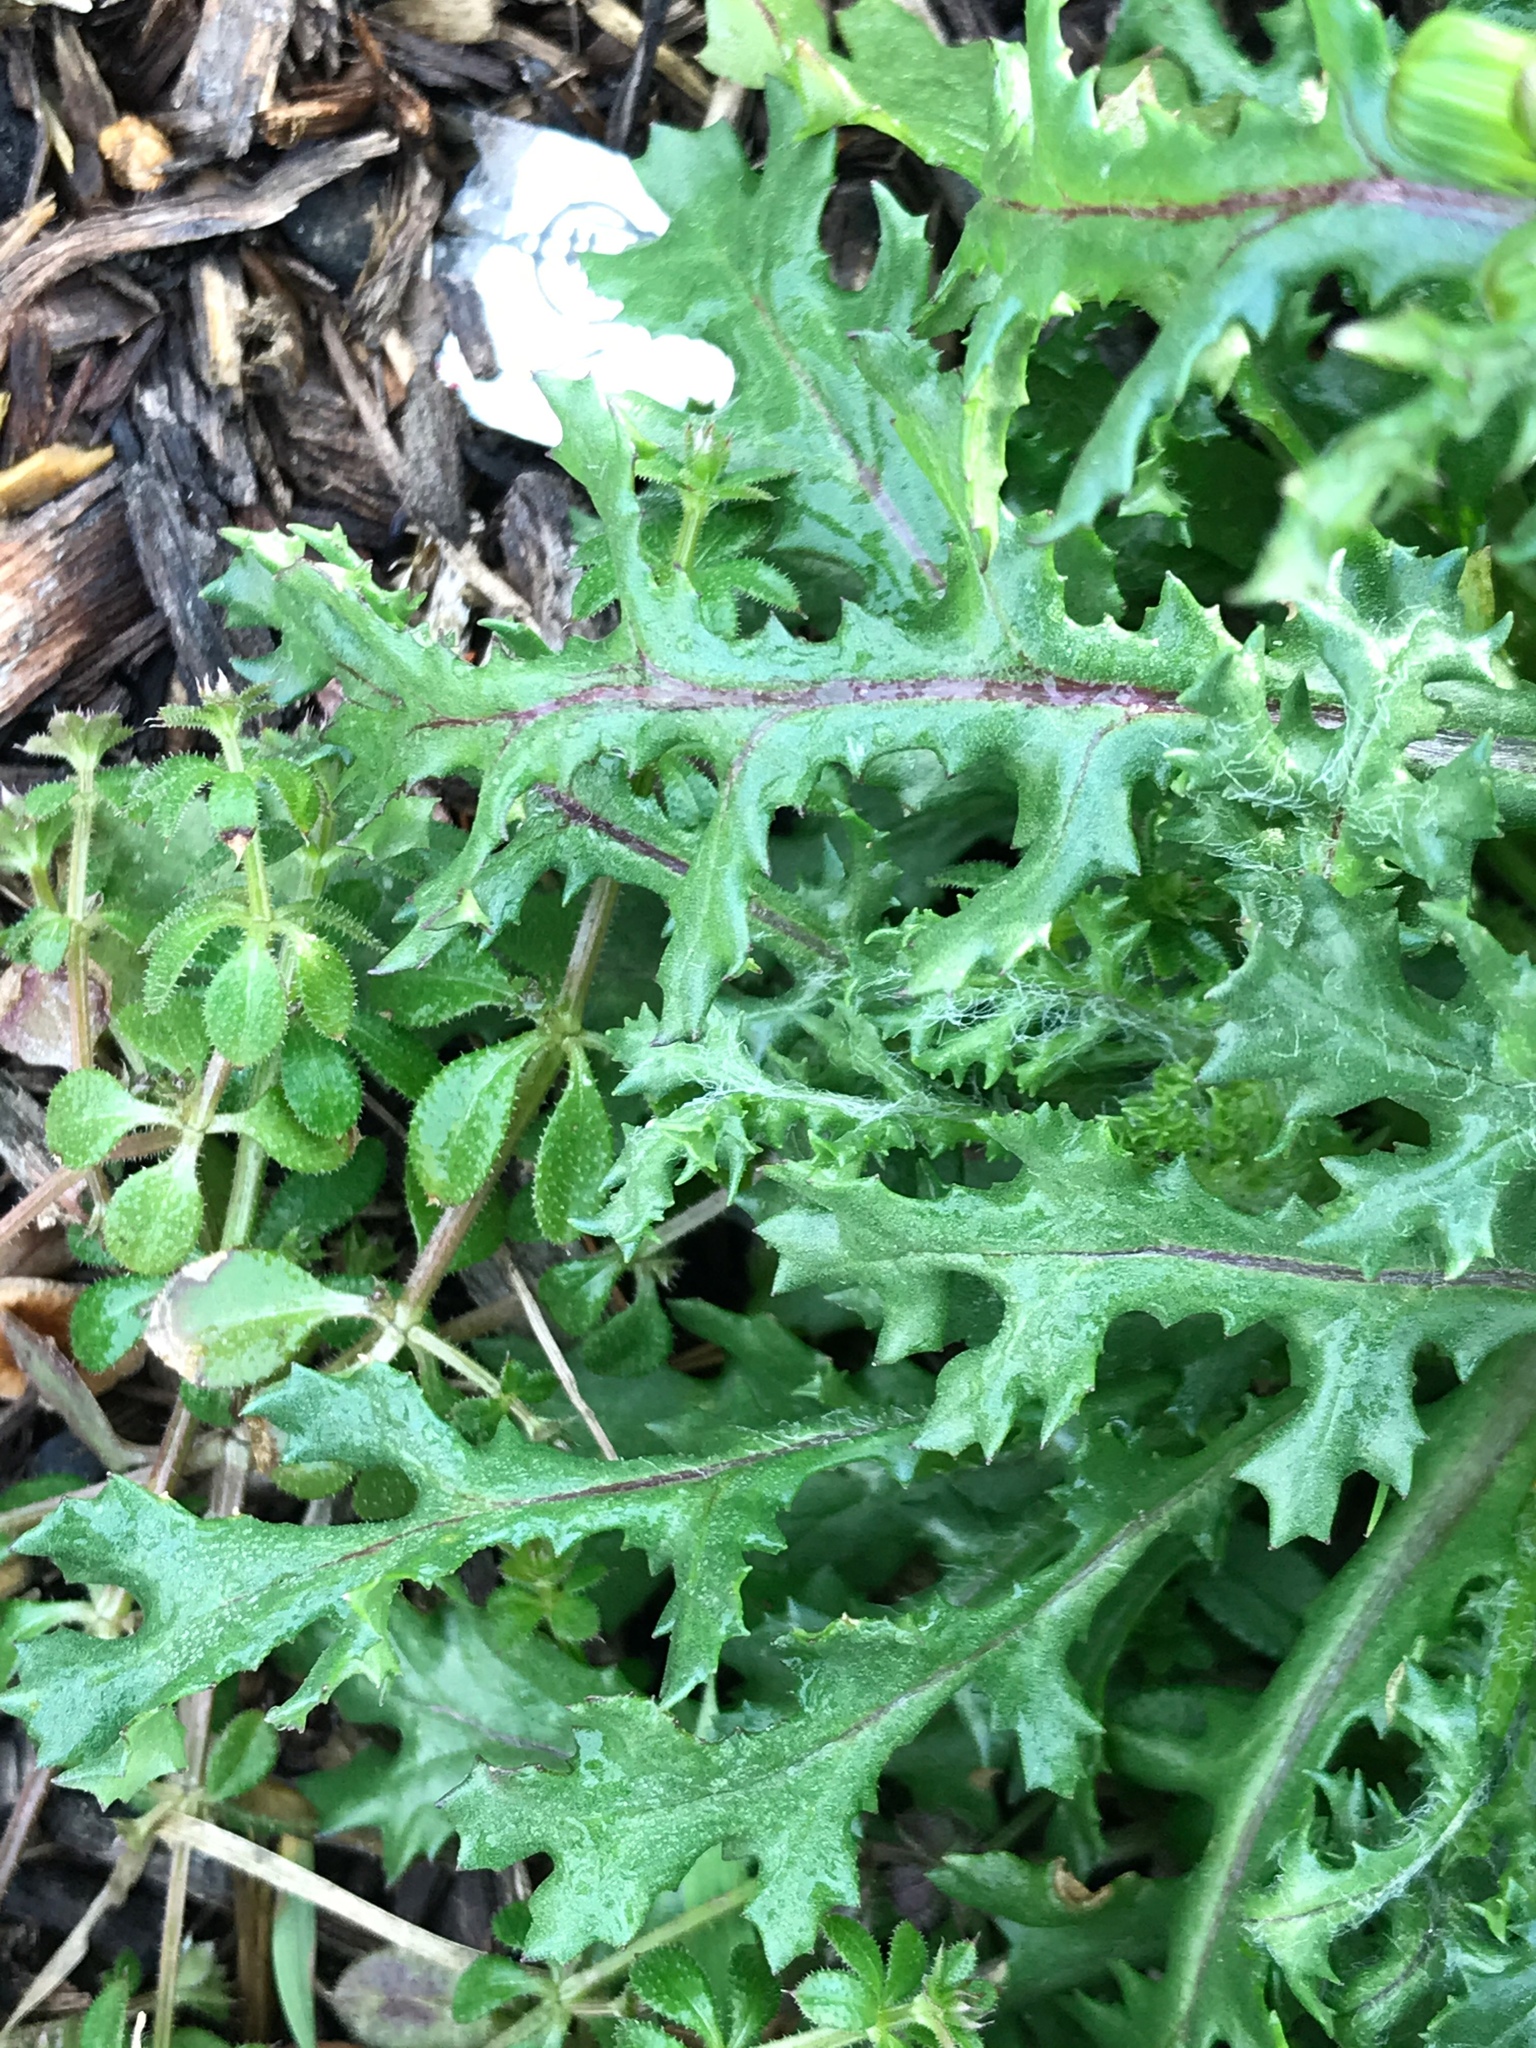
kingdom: Plantae
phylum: Tracheophyta
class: Magnoliopsida
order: Asterales
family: Asteraceae
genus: Senecio
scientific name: Senecio vulgaris
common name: Old-man-in-the-spring
